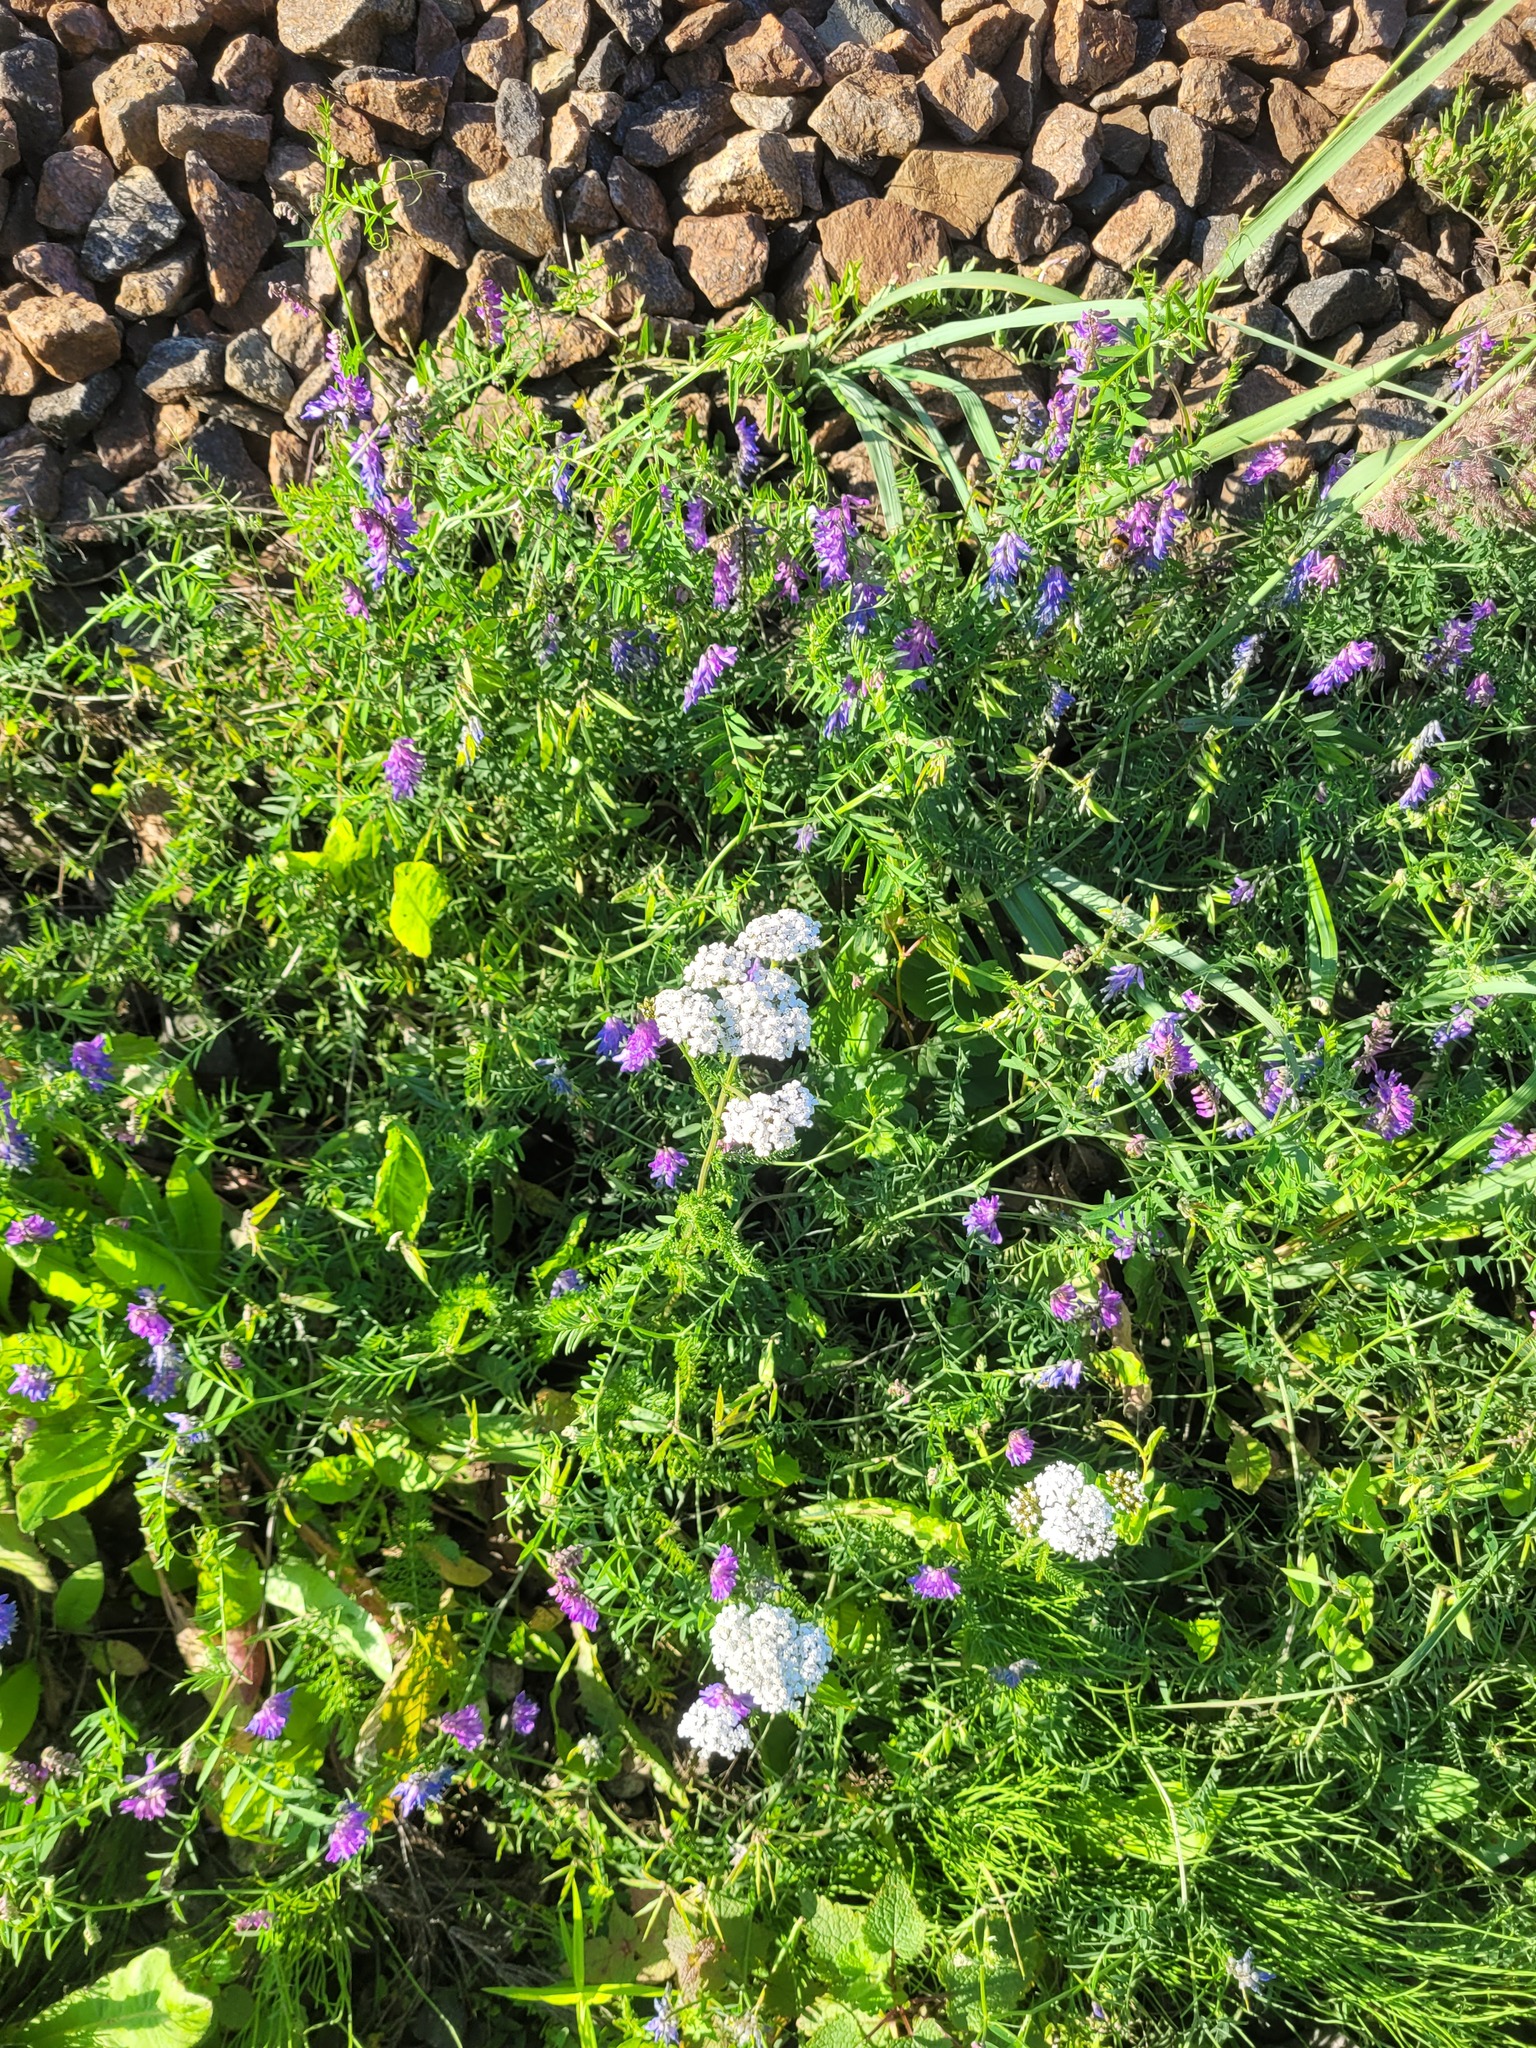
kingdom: Plantae
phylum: Tracheophyta
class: Magnoliopsida
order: Asterales
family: Asteraceae
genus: Achillea
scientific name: Achillea millefolium
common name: Yarrow
